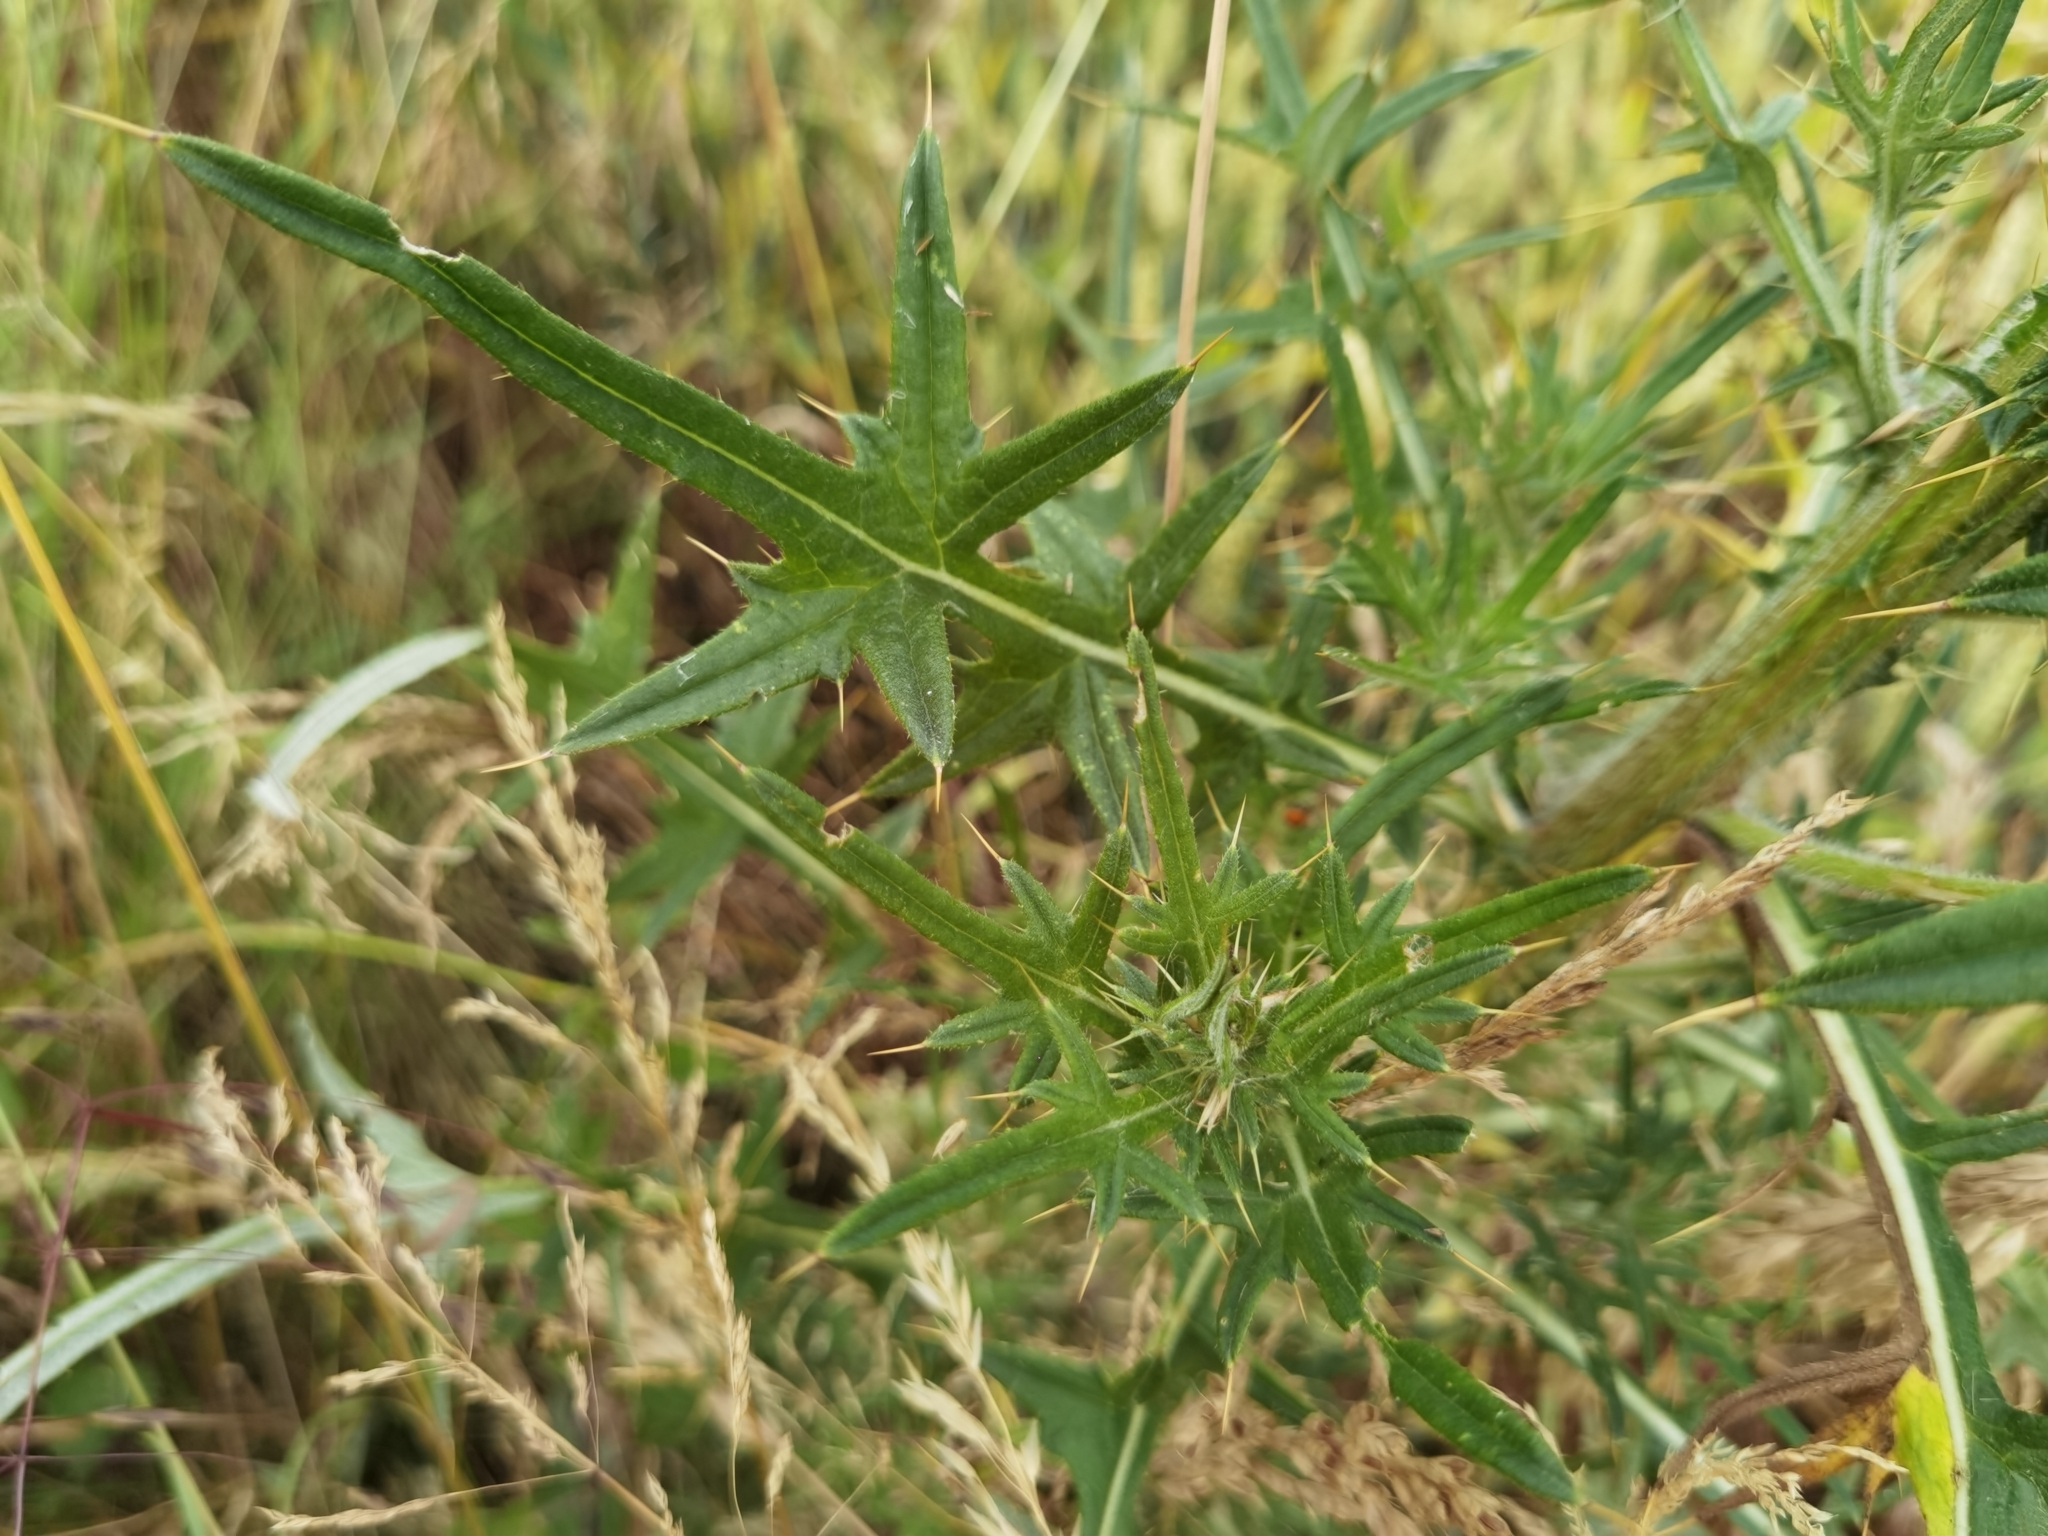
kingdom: Plantae
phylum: Tracheophyta
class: Magnoliopsida
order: Asterales
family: Asteraceae
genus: Cirsium
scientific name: Cirsium vulgare
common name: Bull thistle
